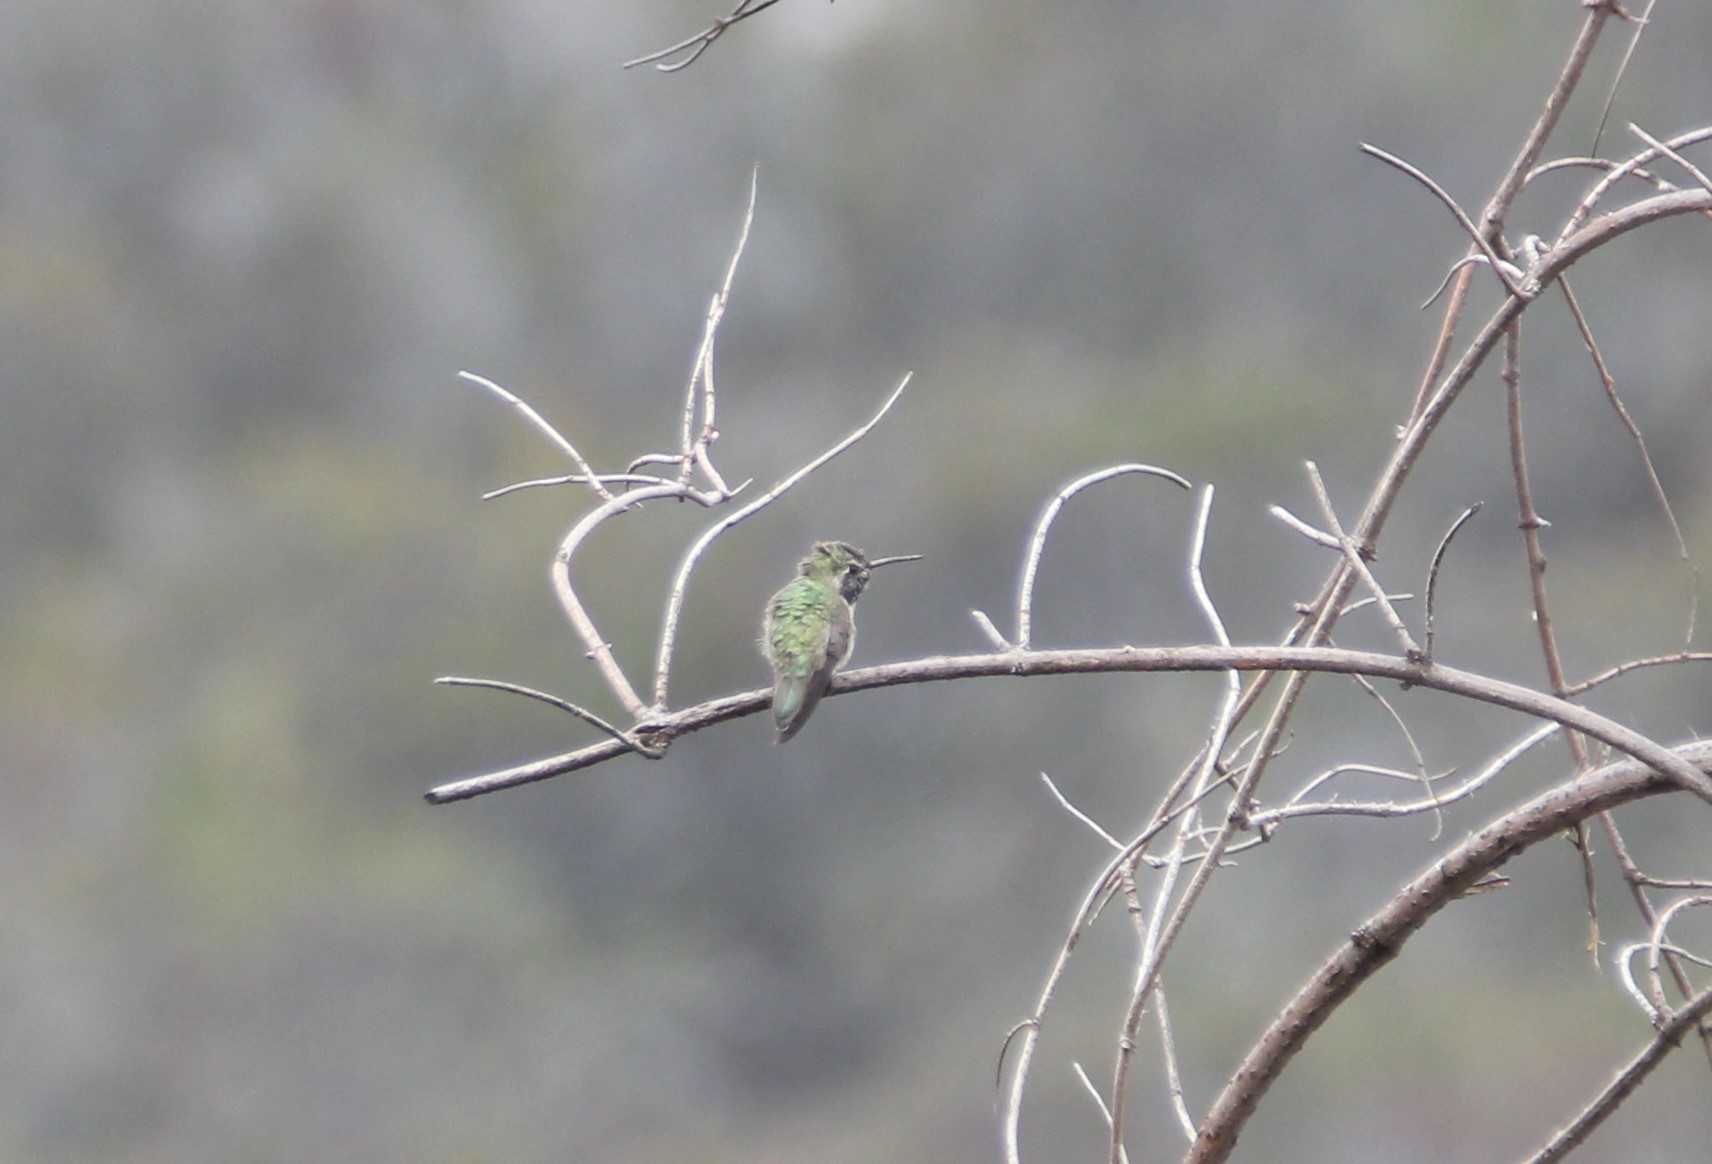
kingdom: Animalia
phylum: Chordata
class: Aves
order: Apodiformes
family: Trochilidae
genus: Calypte
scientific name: Calypte costae
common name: Costa's hummingbird
